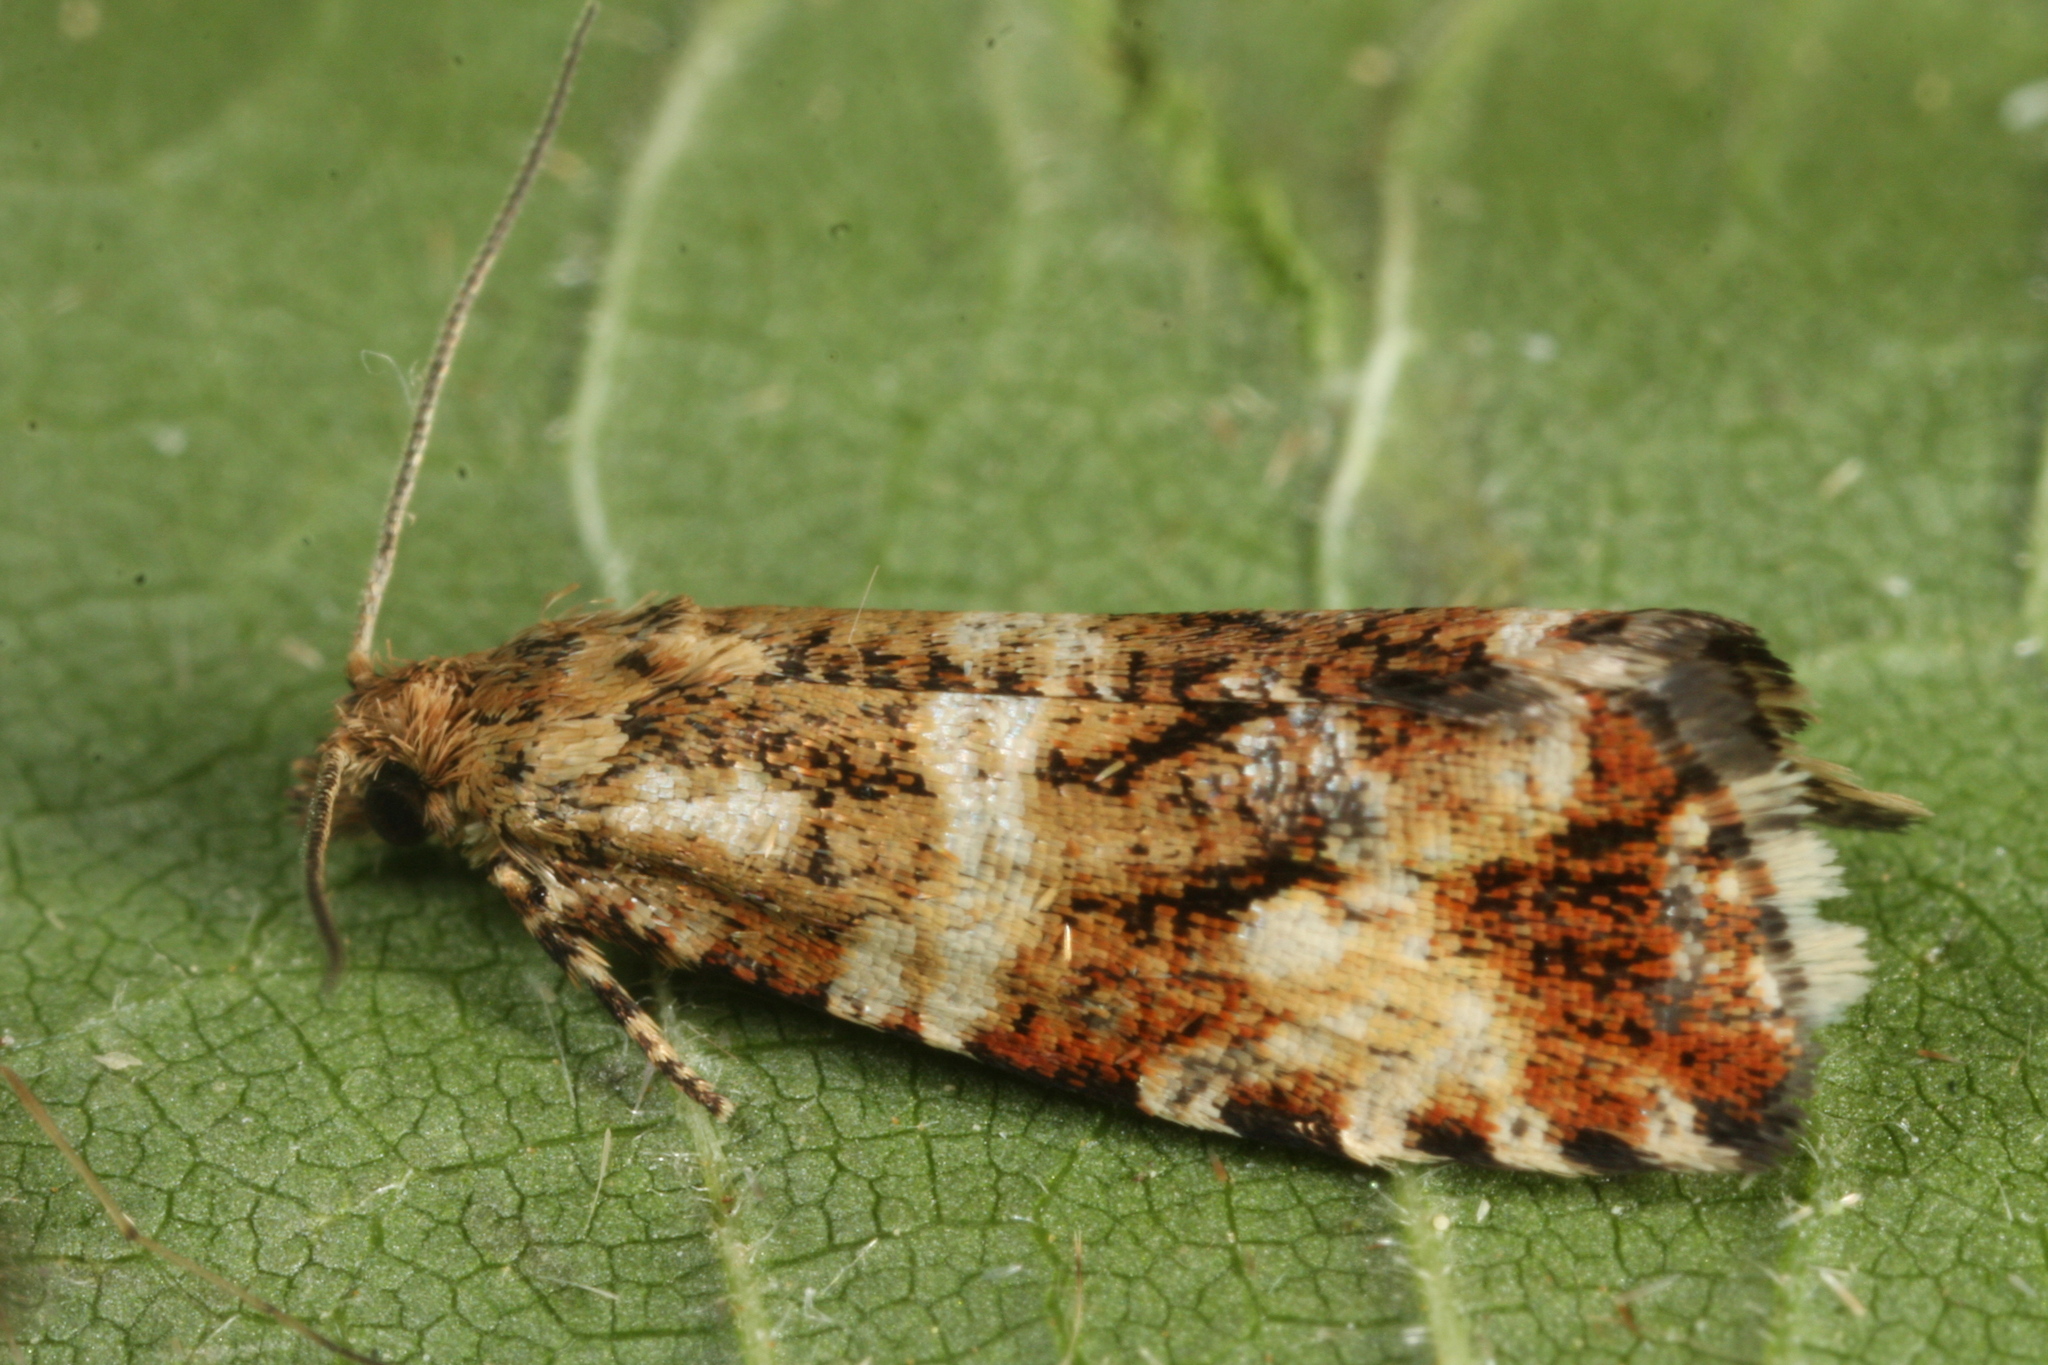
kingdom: Animalia
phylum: Arthropoda
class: Insecta
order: Lepidoptera
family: Tortricidae
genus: Olethreutes
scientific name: Olethreutes palustrana
